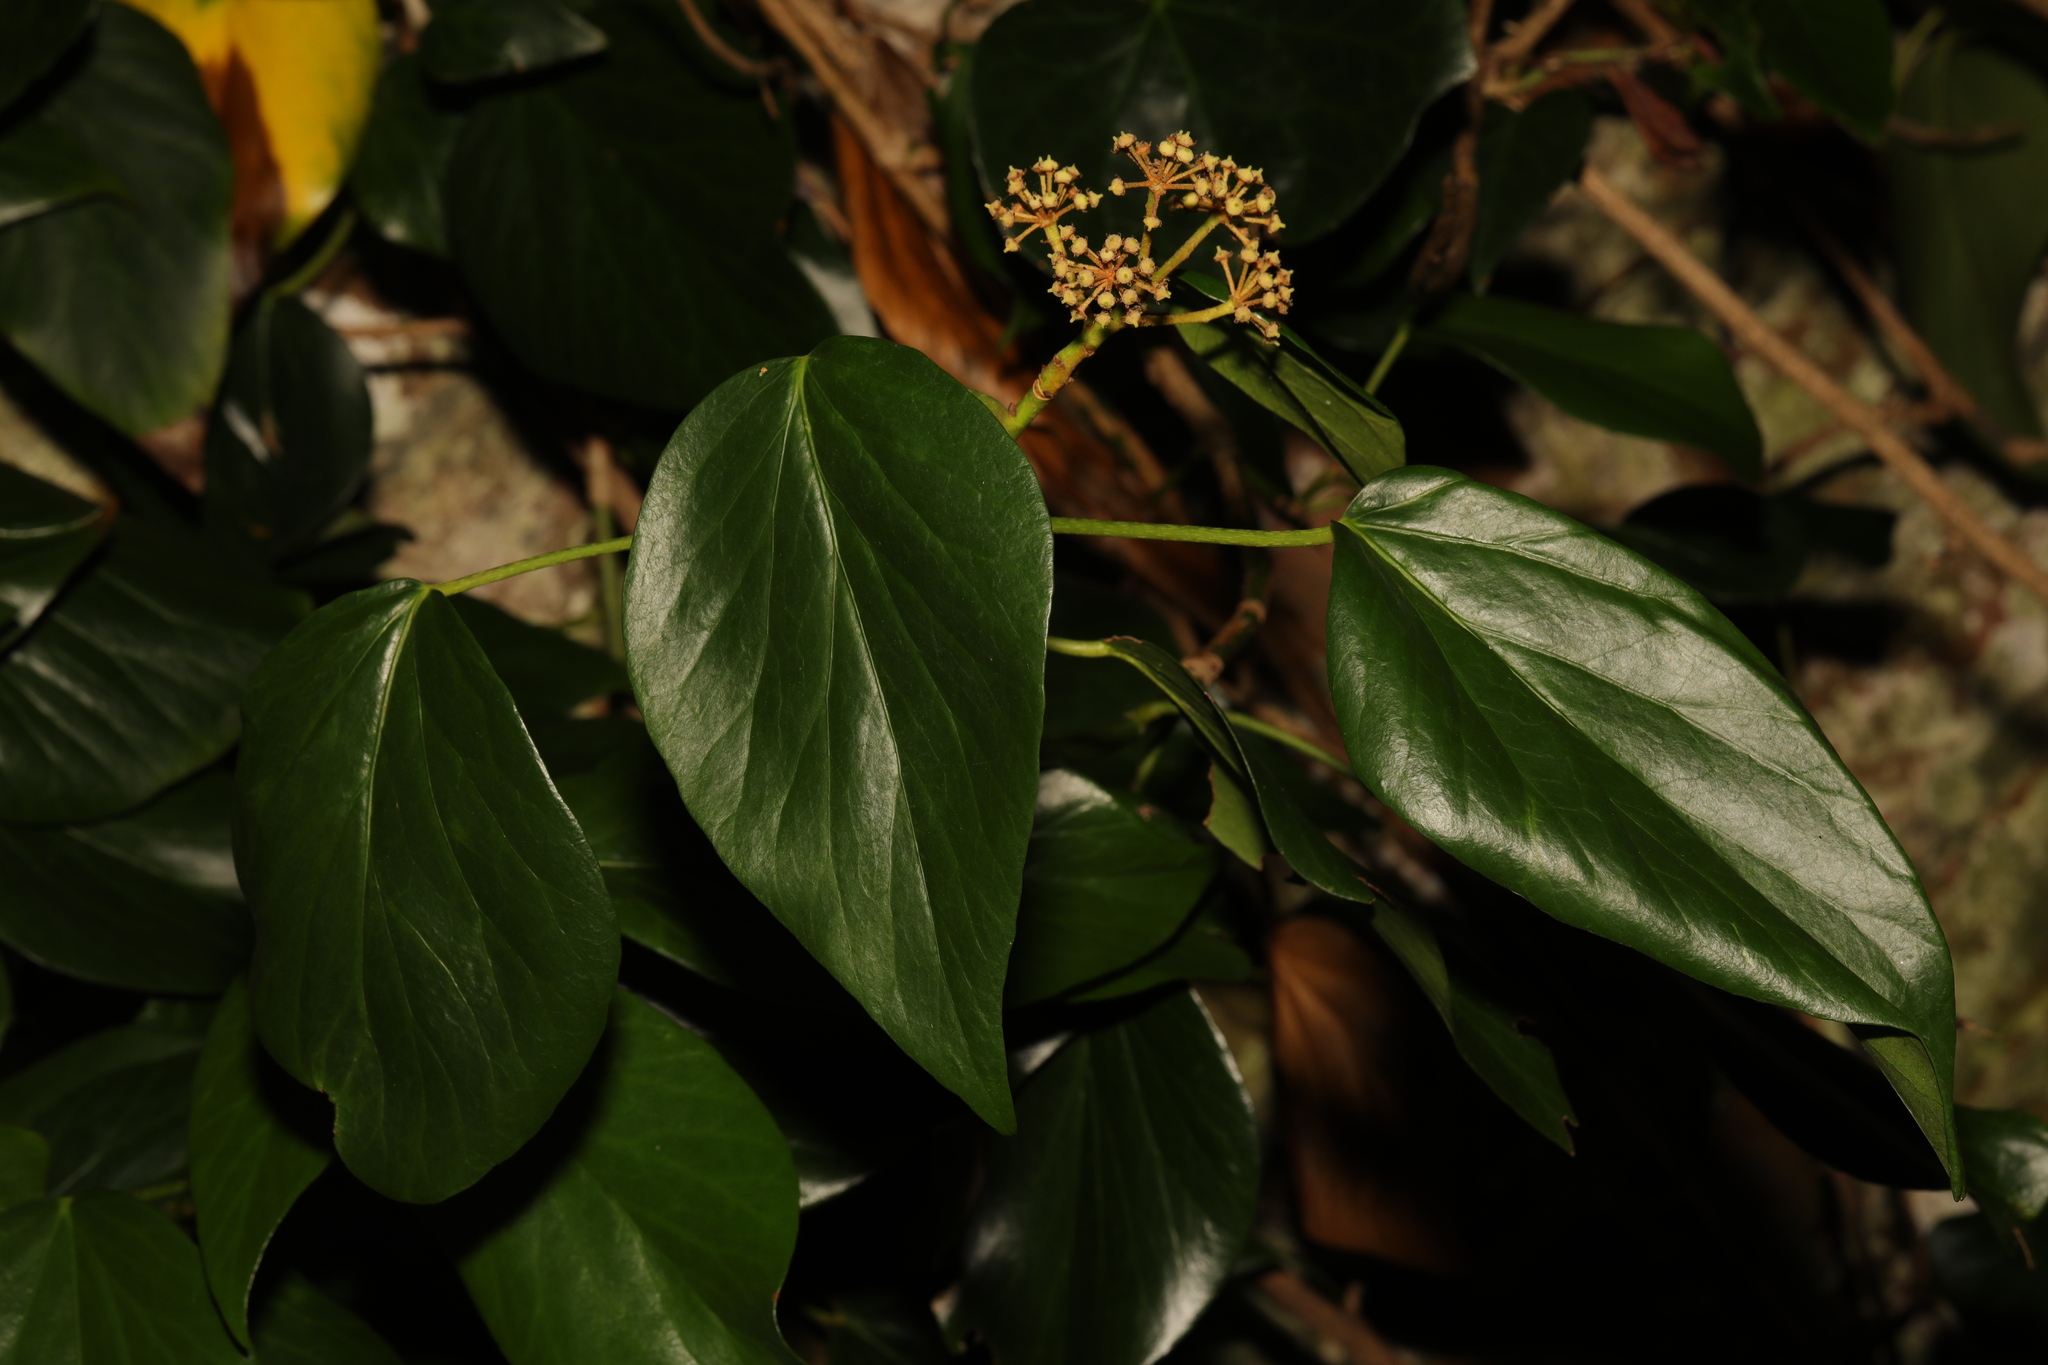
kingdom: Plantae
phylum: Tracheophyta
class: Magnoliopsida
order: Apiales
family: Araliaceae
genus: Hedera
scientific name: Hedera colchica
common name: Persian ivy
